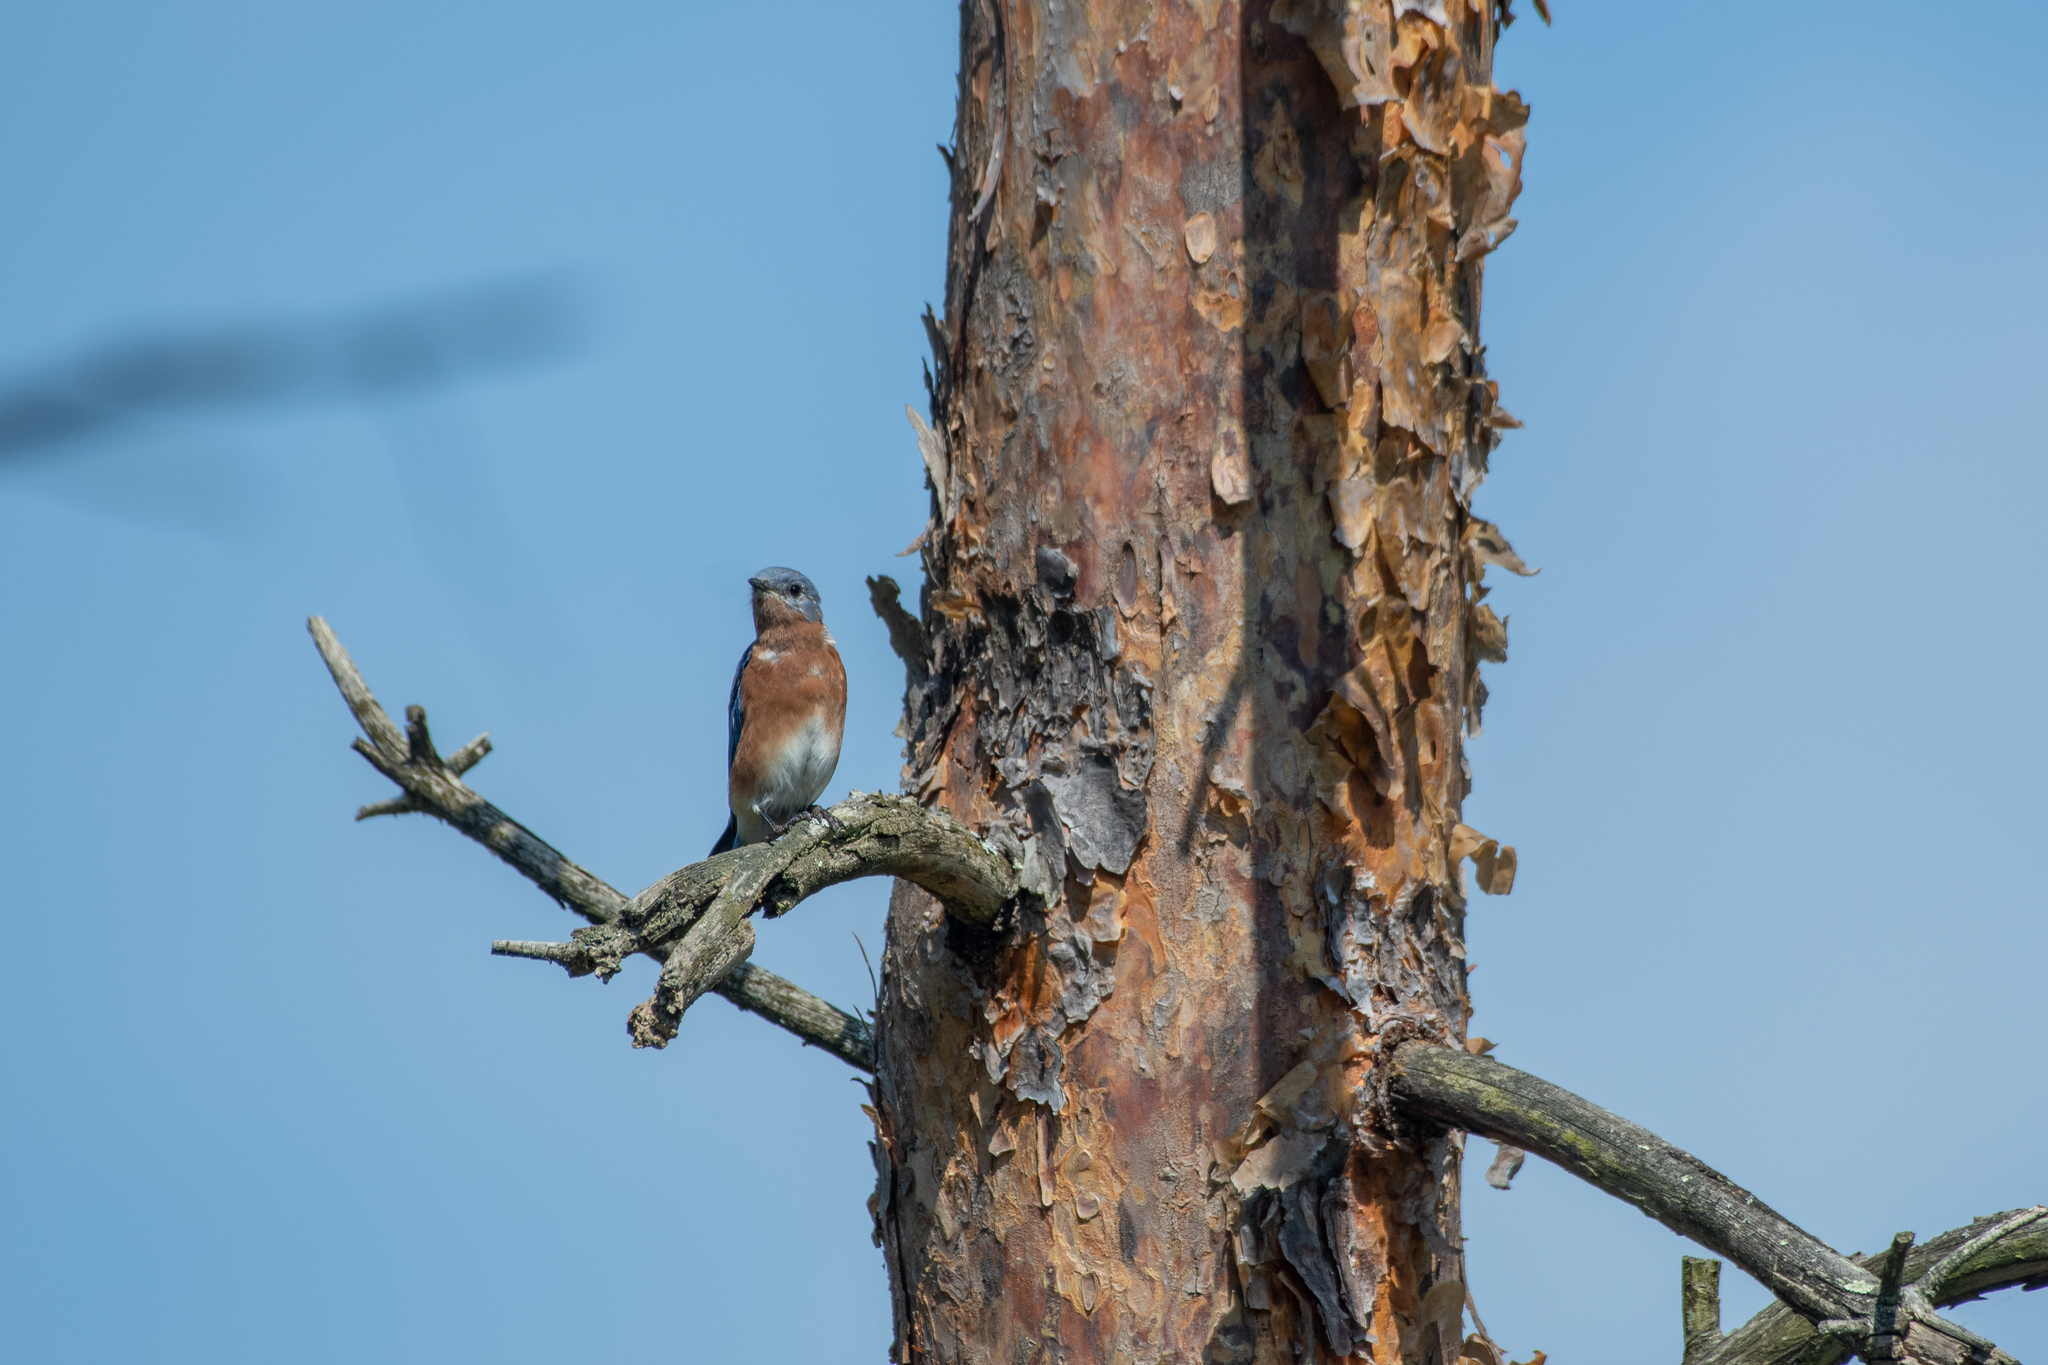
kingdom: Animalia
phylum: Chordata
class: Aves
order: Passeriformes
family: Turdidae
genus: Sialia
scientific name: Sialia sialis
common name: Eastern bluebird
